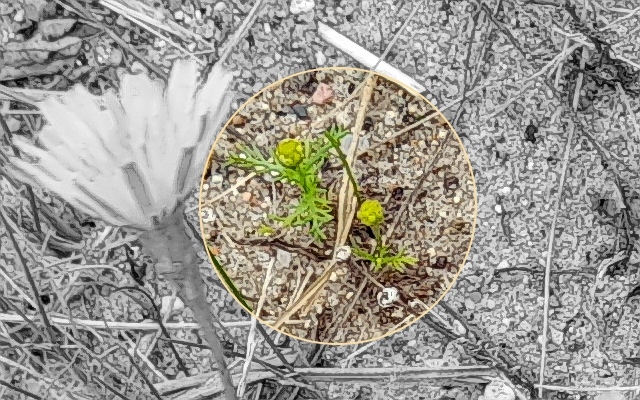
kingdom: Plantae
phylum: Tracheophyta
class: Magnoliopsida
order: Asterales
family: Asteraceae
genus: Matricaria
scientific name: Matricaria discoidea
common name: Disc mayweed
